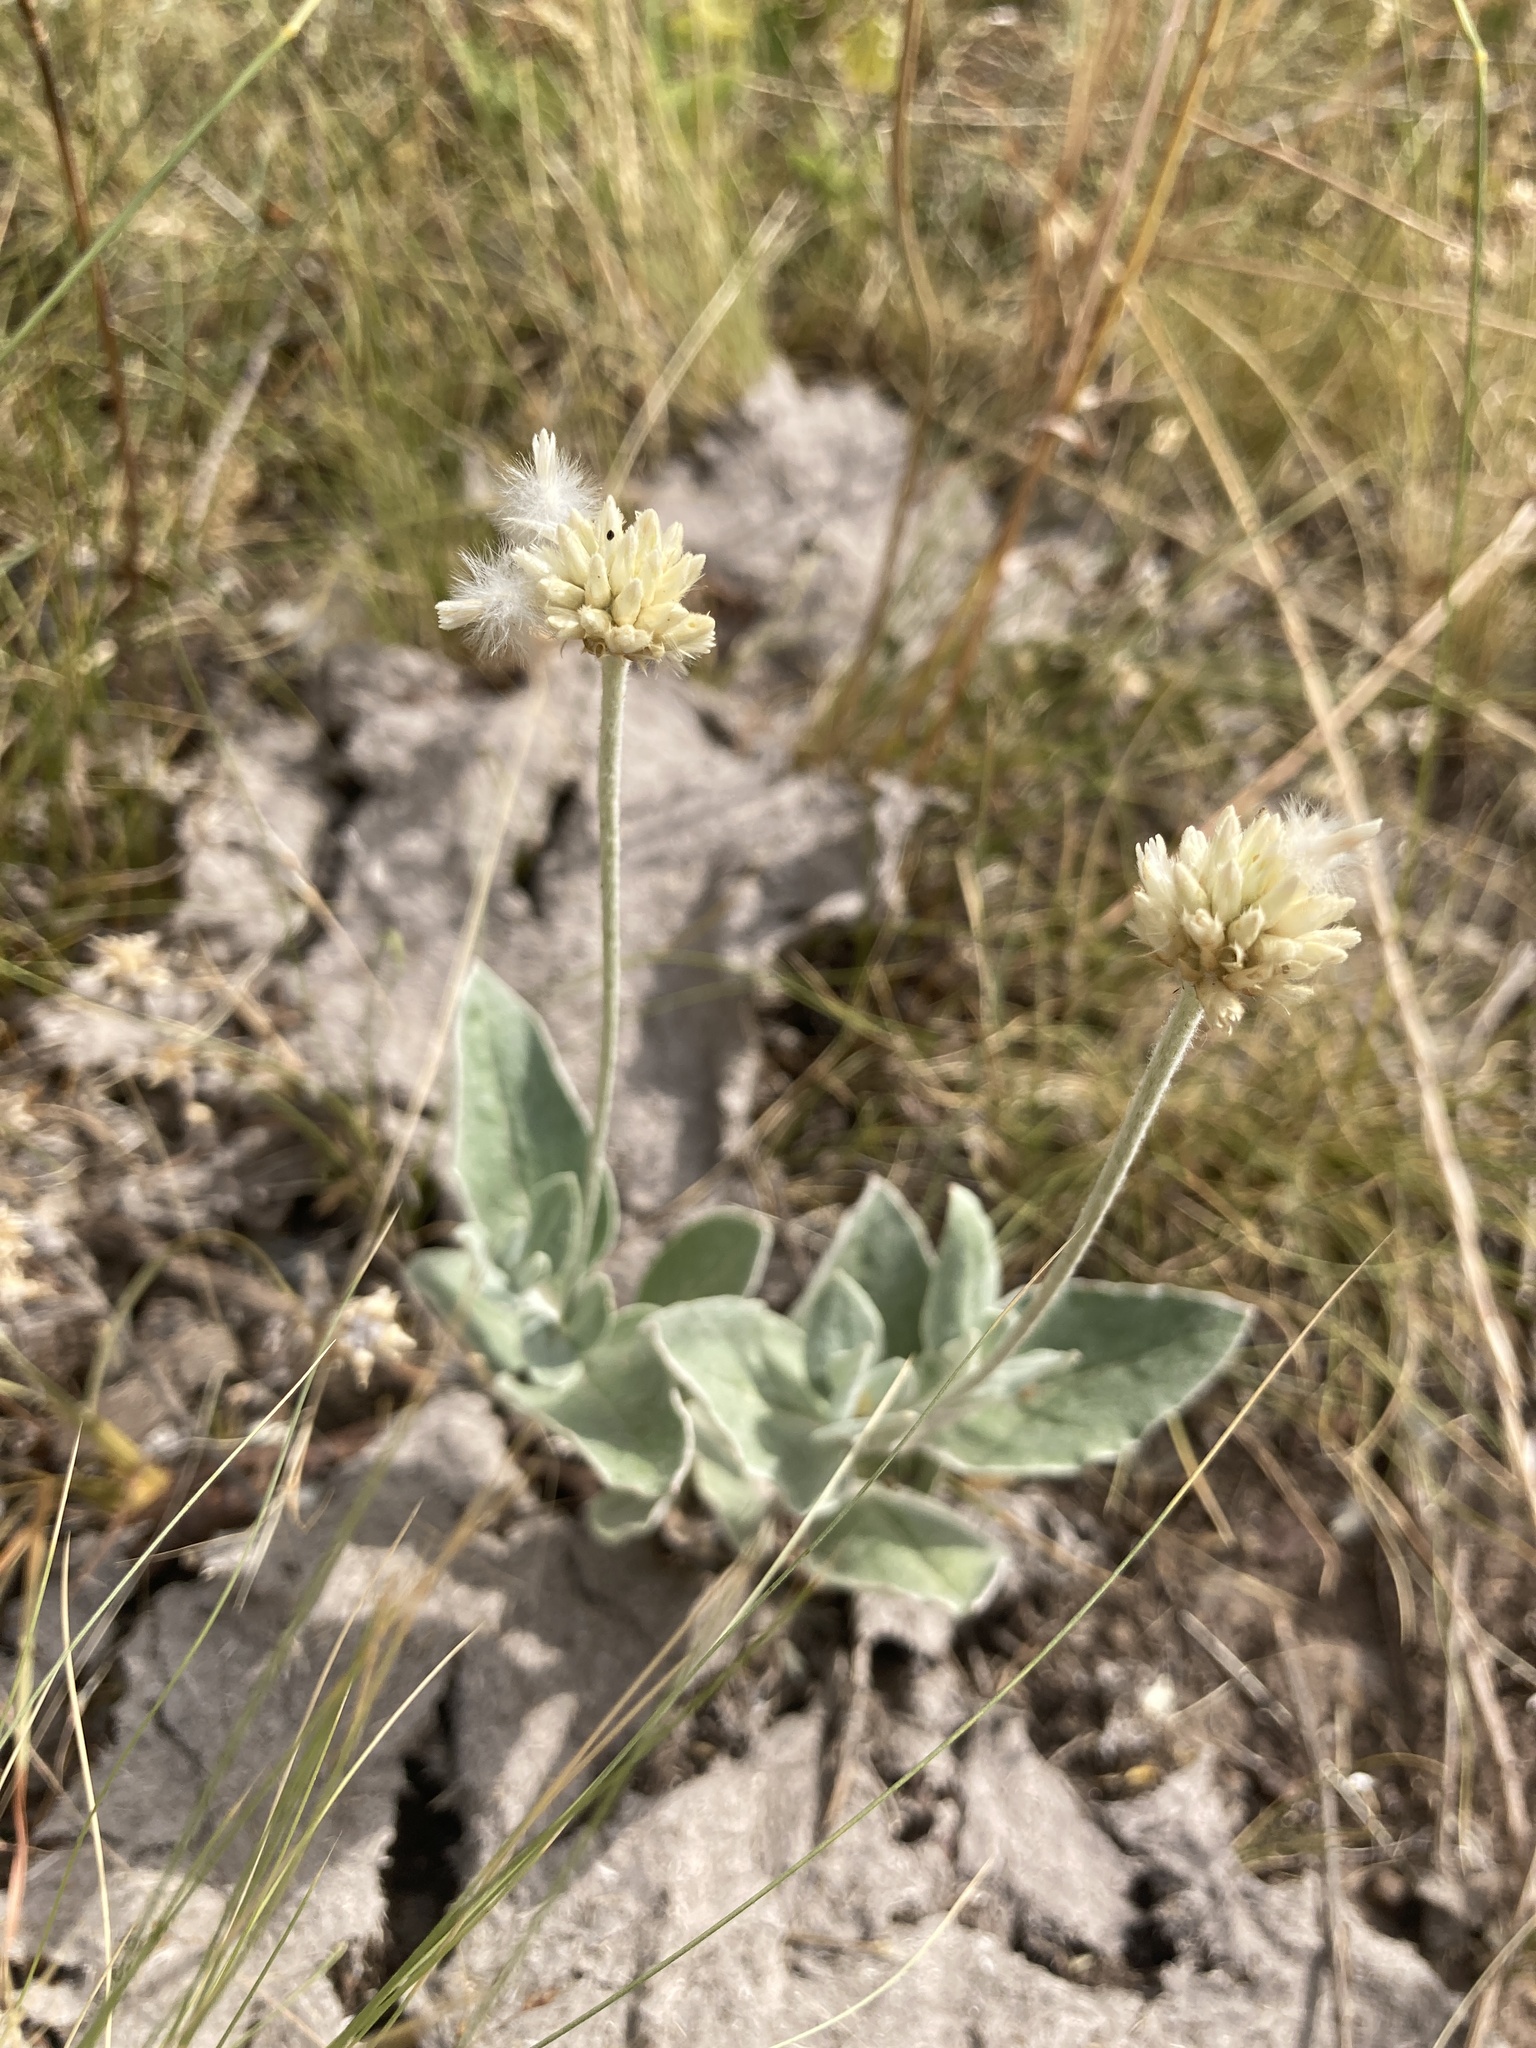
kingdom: Plantae
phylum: Tracheophyta
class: Magnoliopsida
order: Caryophyllales
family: Amaranthaceae
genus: Pfaffia
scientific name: Pfaffia gnaphalioides
